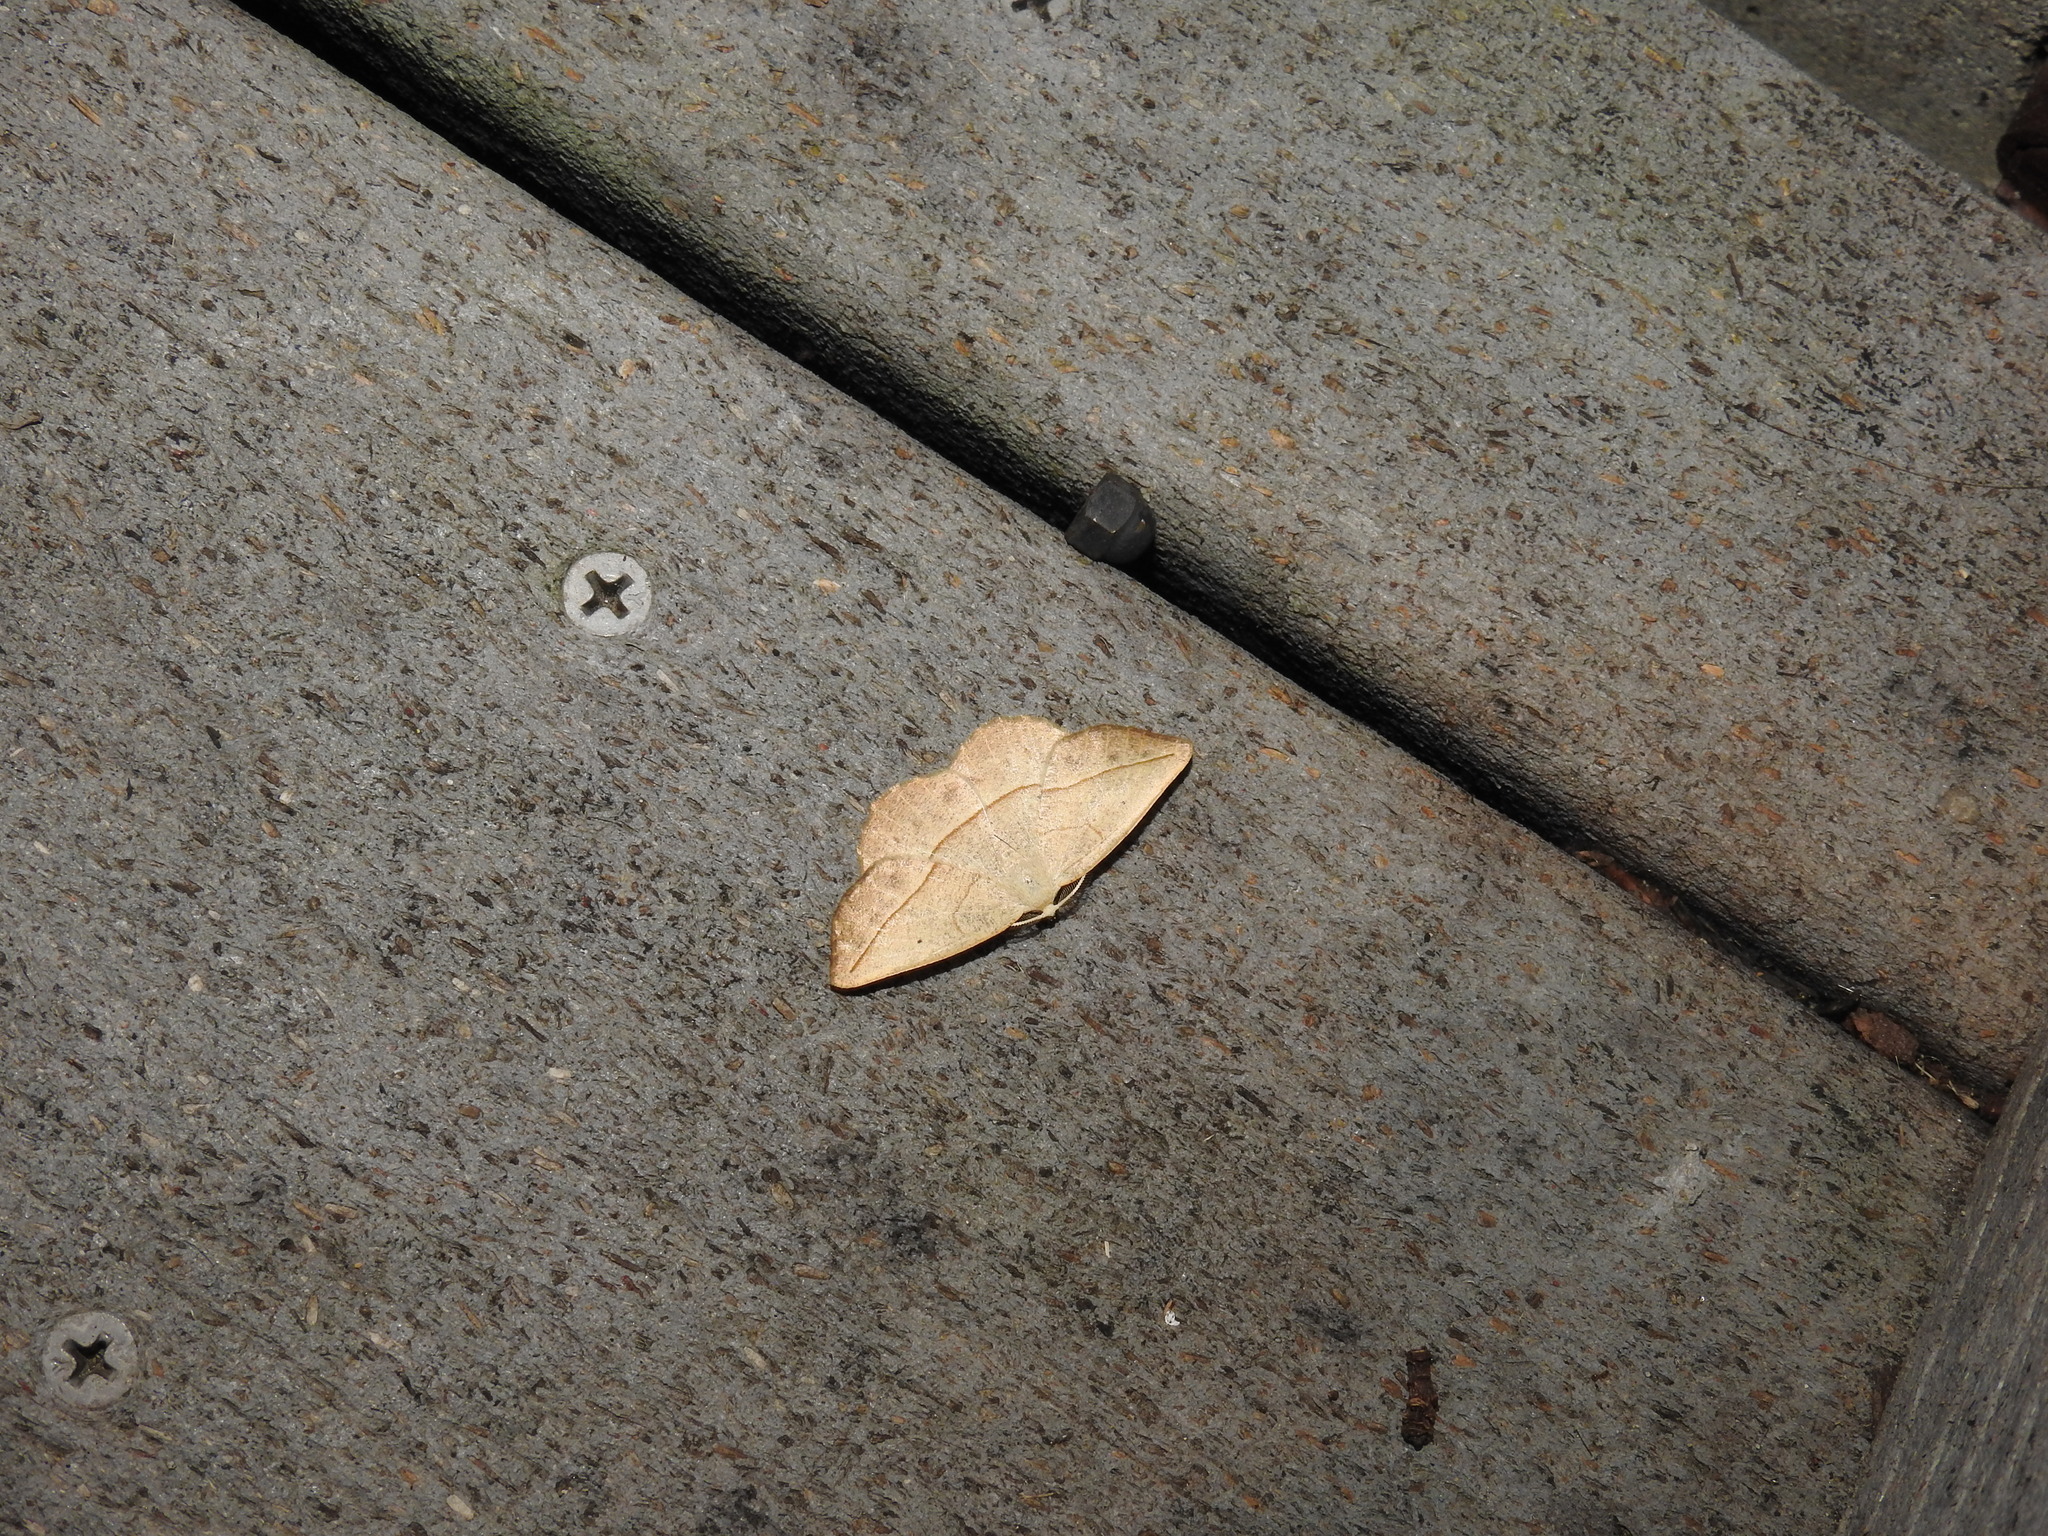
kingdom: Animalia
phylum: Arthropoda
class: Insecta
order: Lepidoptera
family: Geometridae
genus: Eusarca
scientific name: Eusarca confusaria
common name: Confused eusarca
